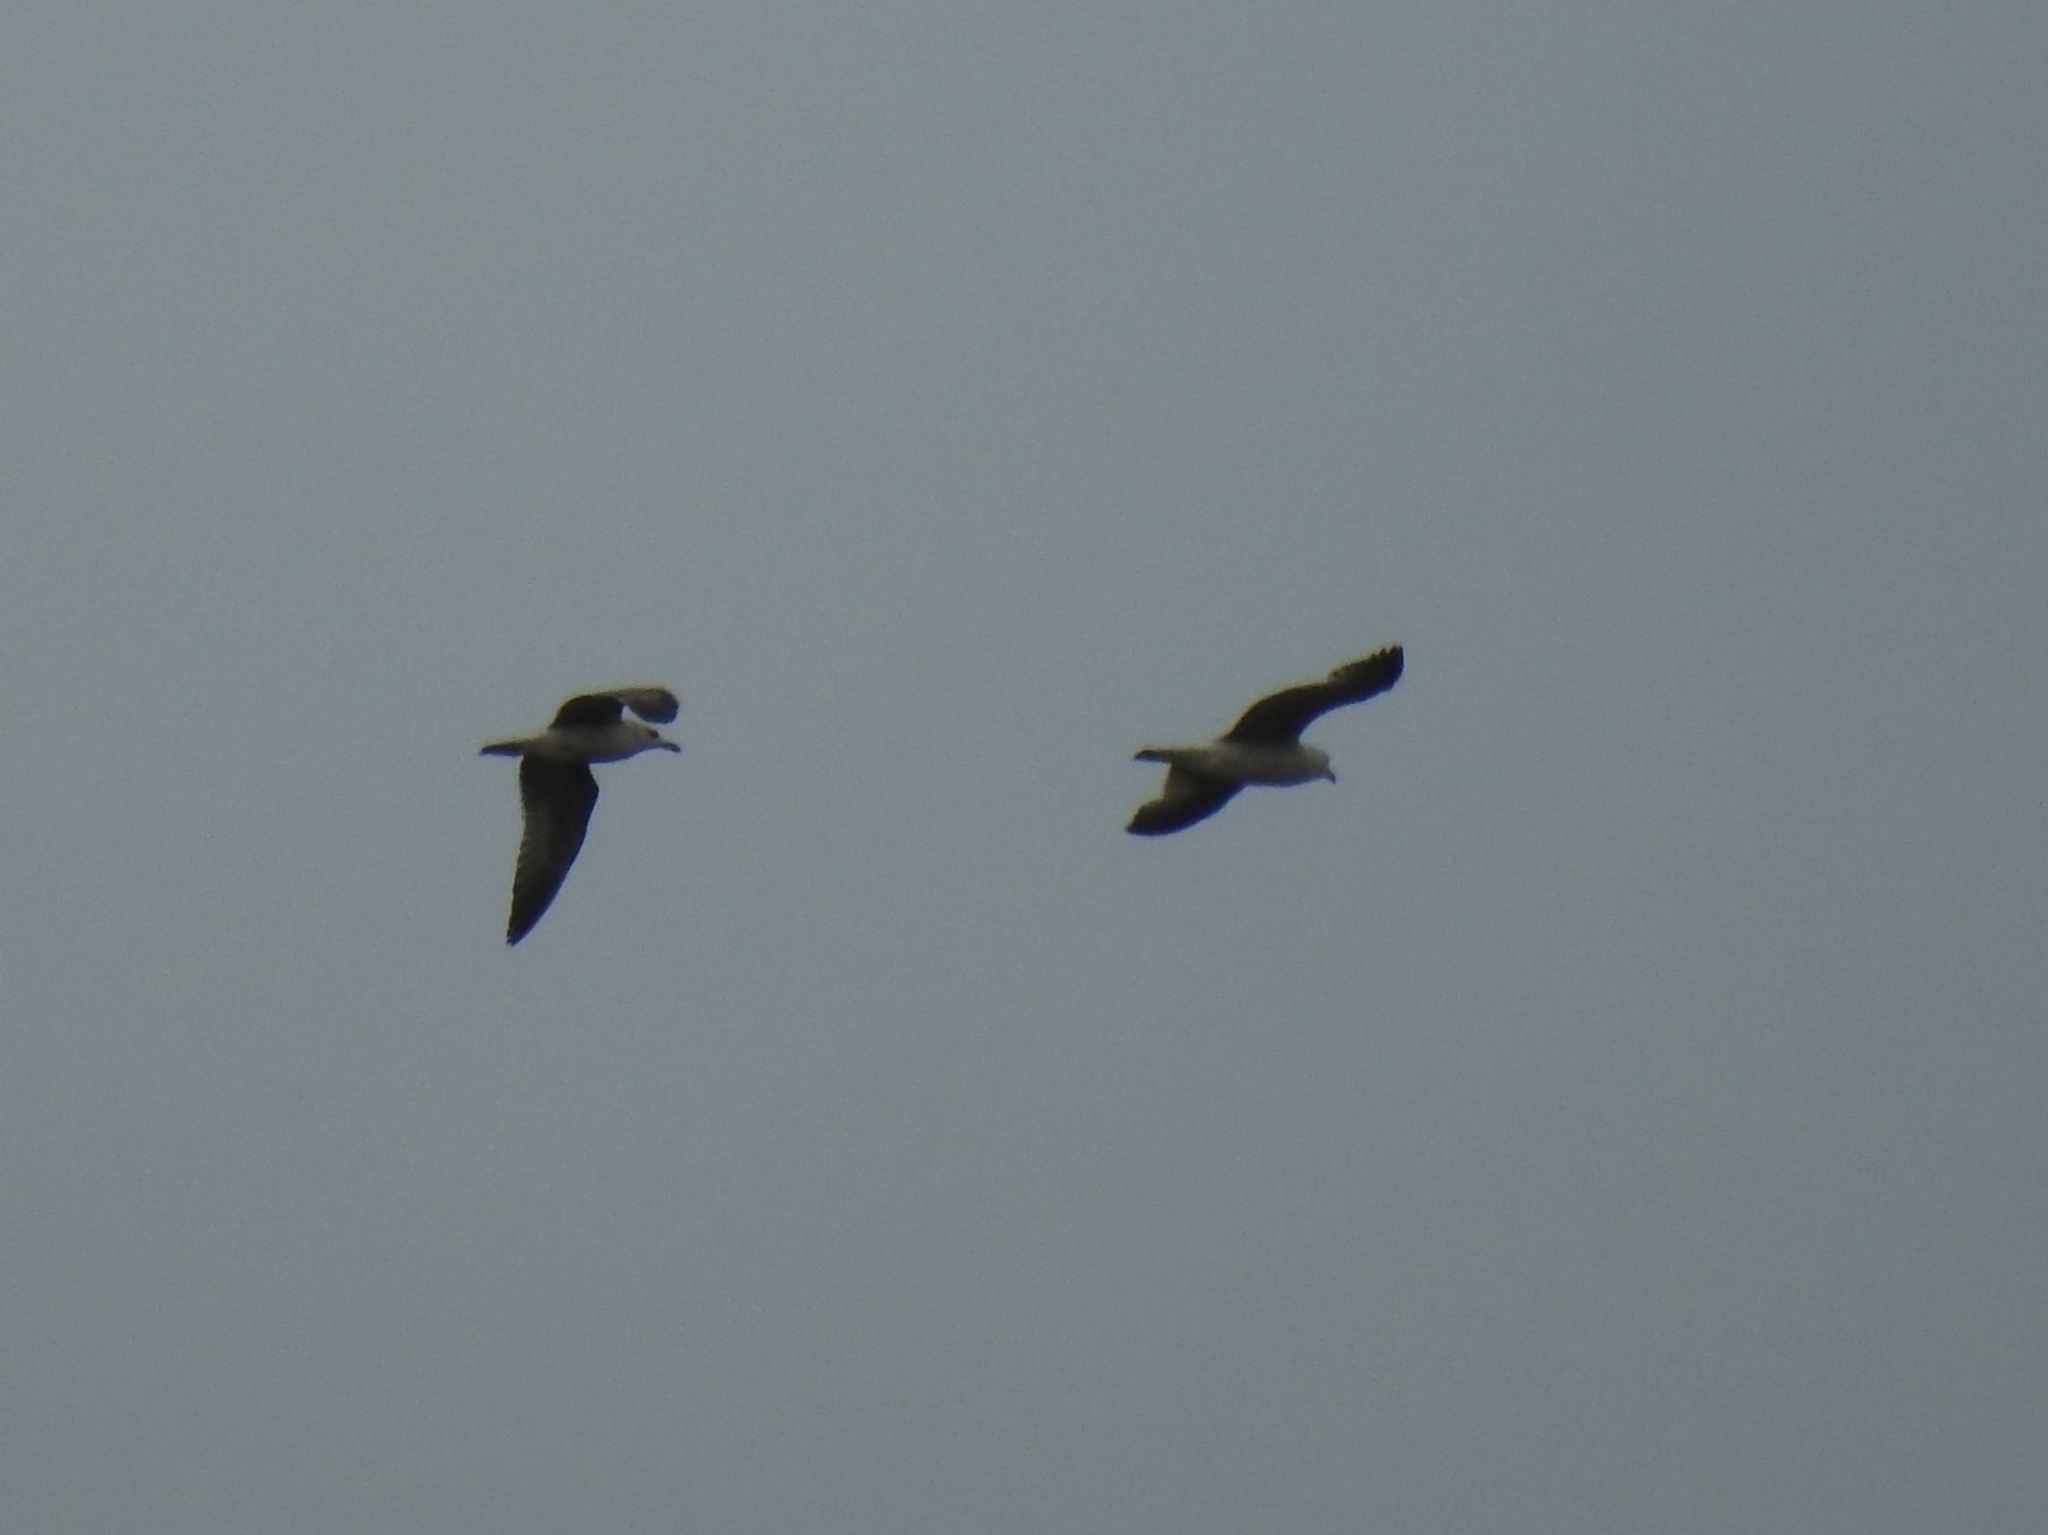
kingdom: Animalia
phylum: Chordata
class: Aves
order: Charadriiformes
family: Laridae
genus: Larus
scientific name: Larus michahellis
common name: Yellow-legged gull
